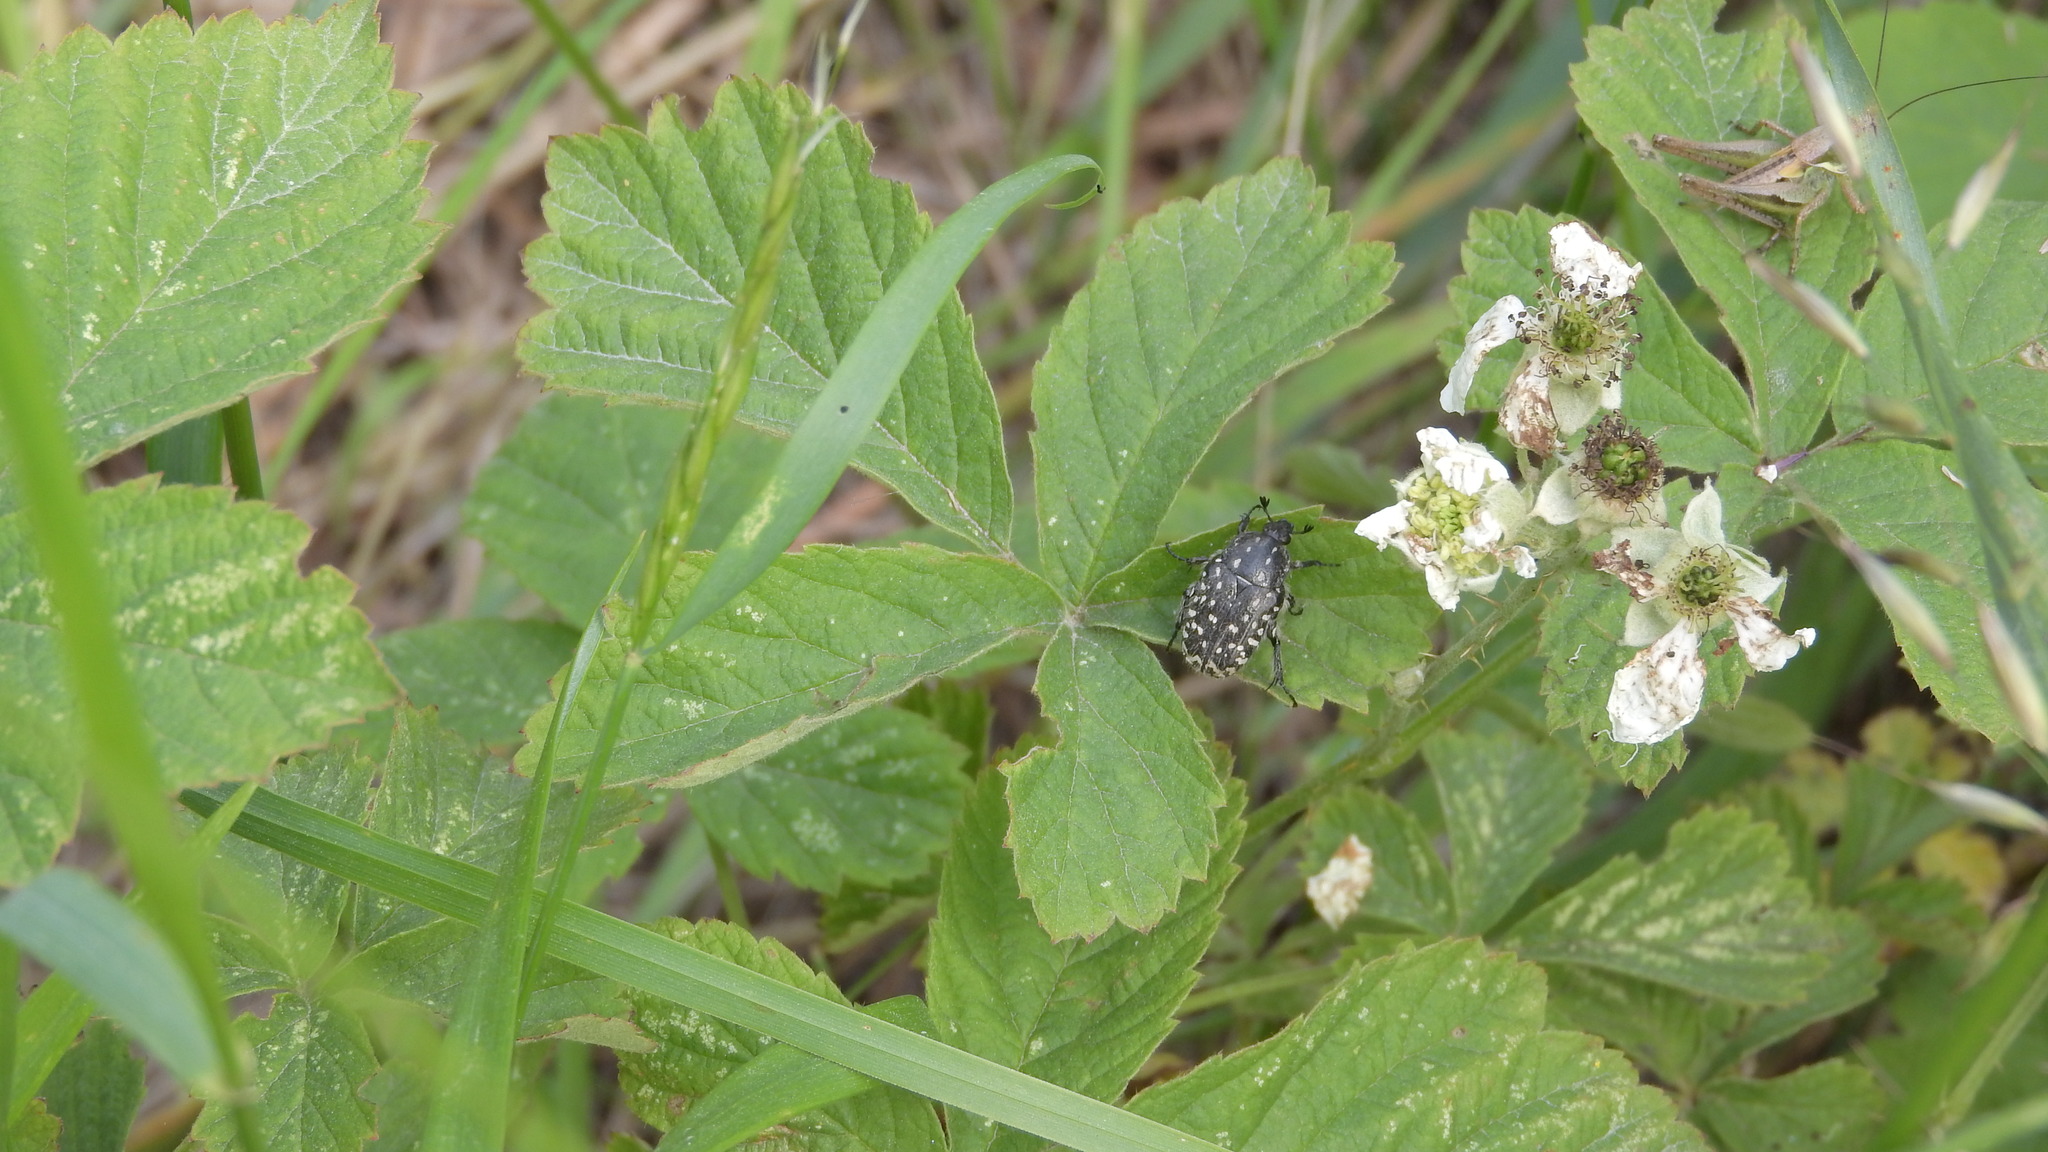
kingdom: Animalia
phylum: Arthropoda
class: Insecta
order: Coleoptera
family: Scarabaeidae
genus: Oxythyrea
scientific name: Oxythyrea funesta
